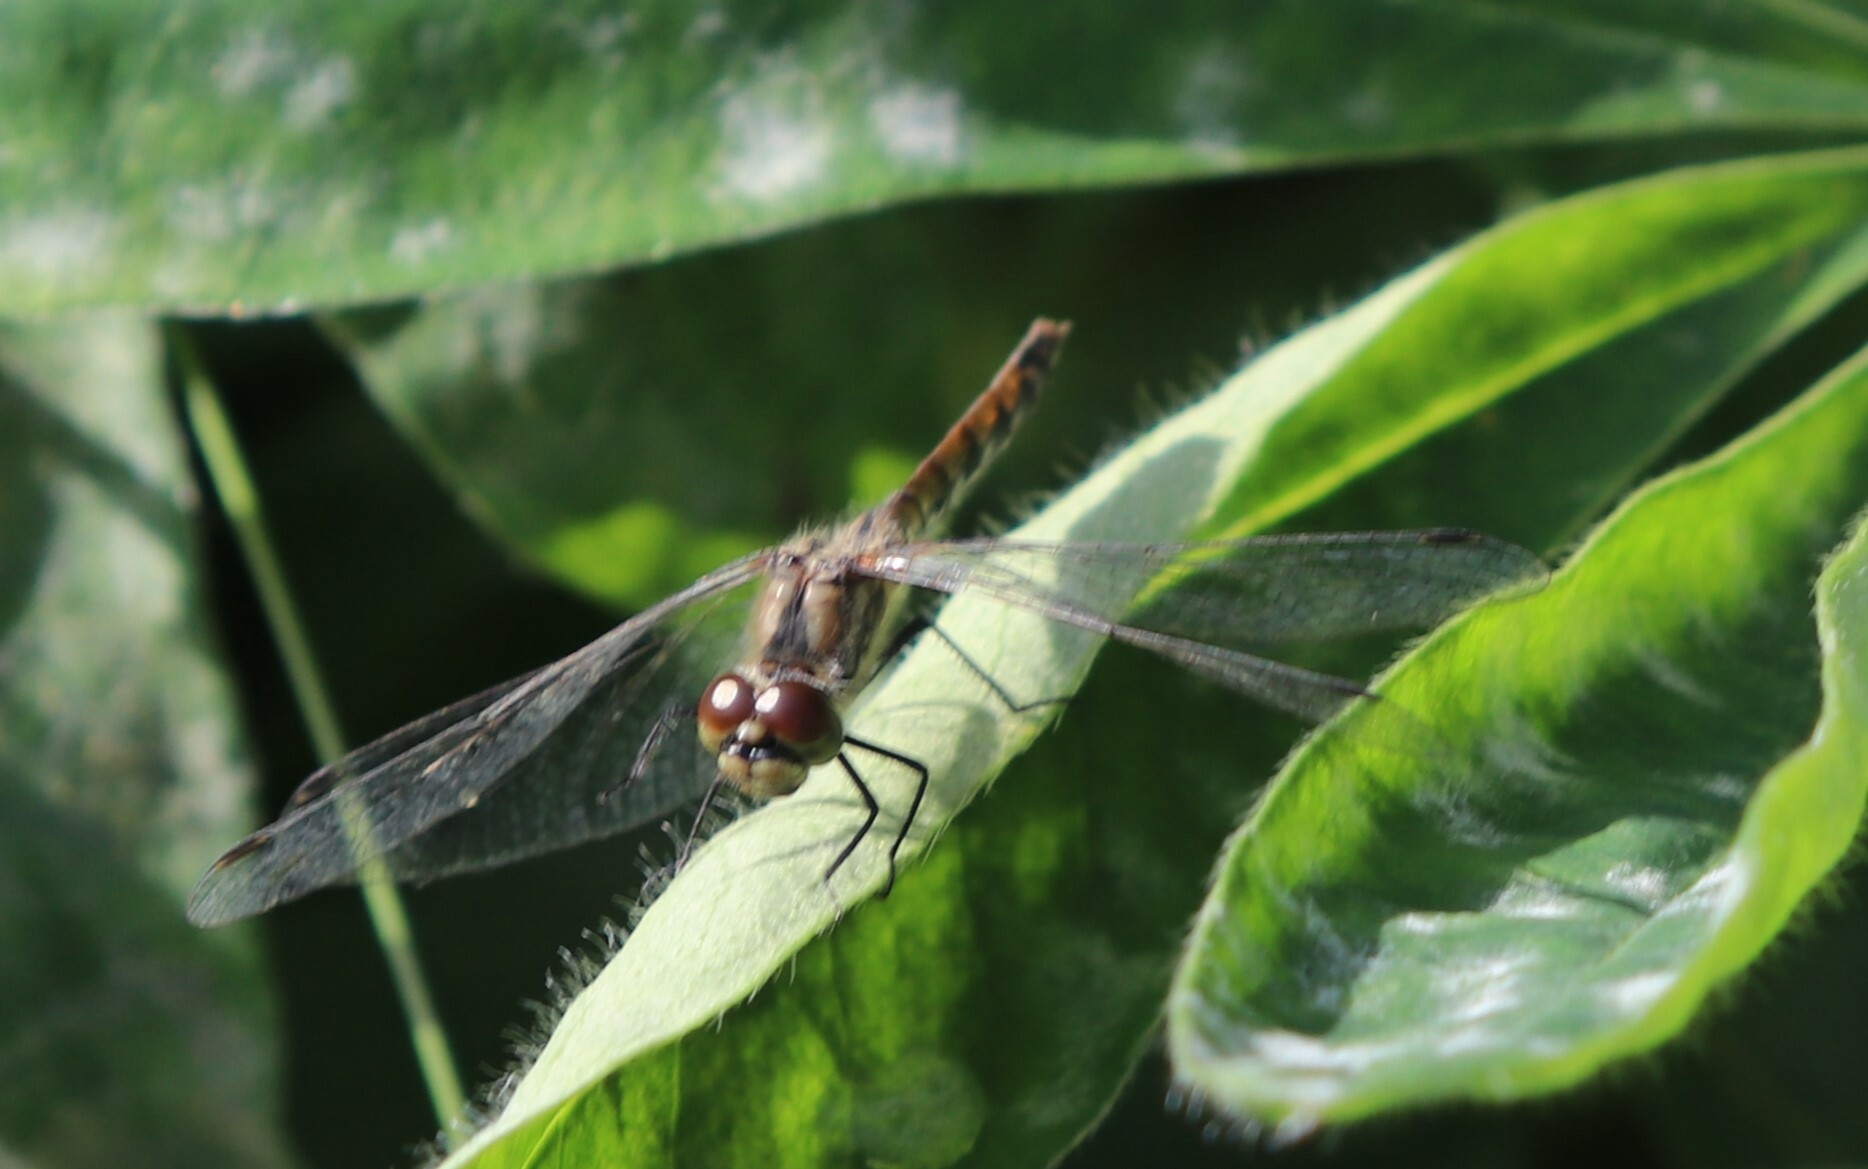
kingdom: Animalia
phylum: Arthropoda
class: Insecta
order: Odonata
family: Libellulidae
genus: Sympetrum
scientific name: Sympetrum danae
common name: Black darter
